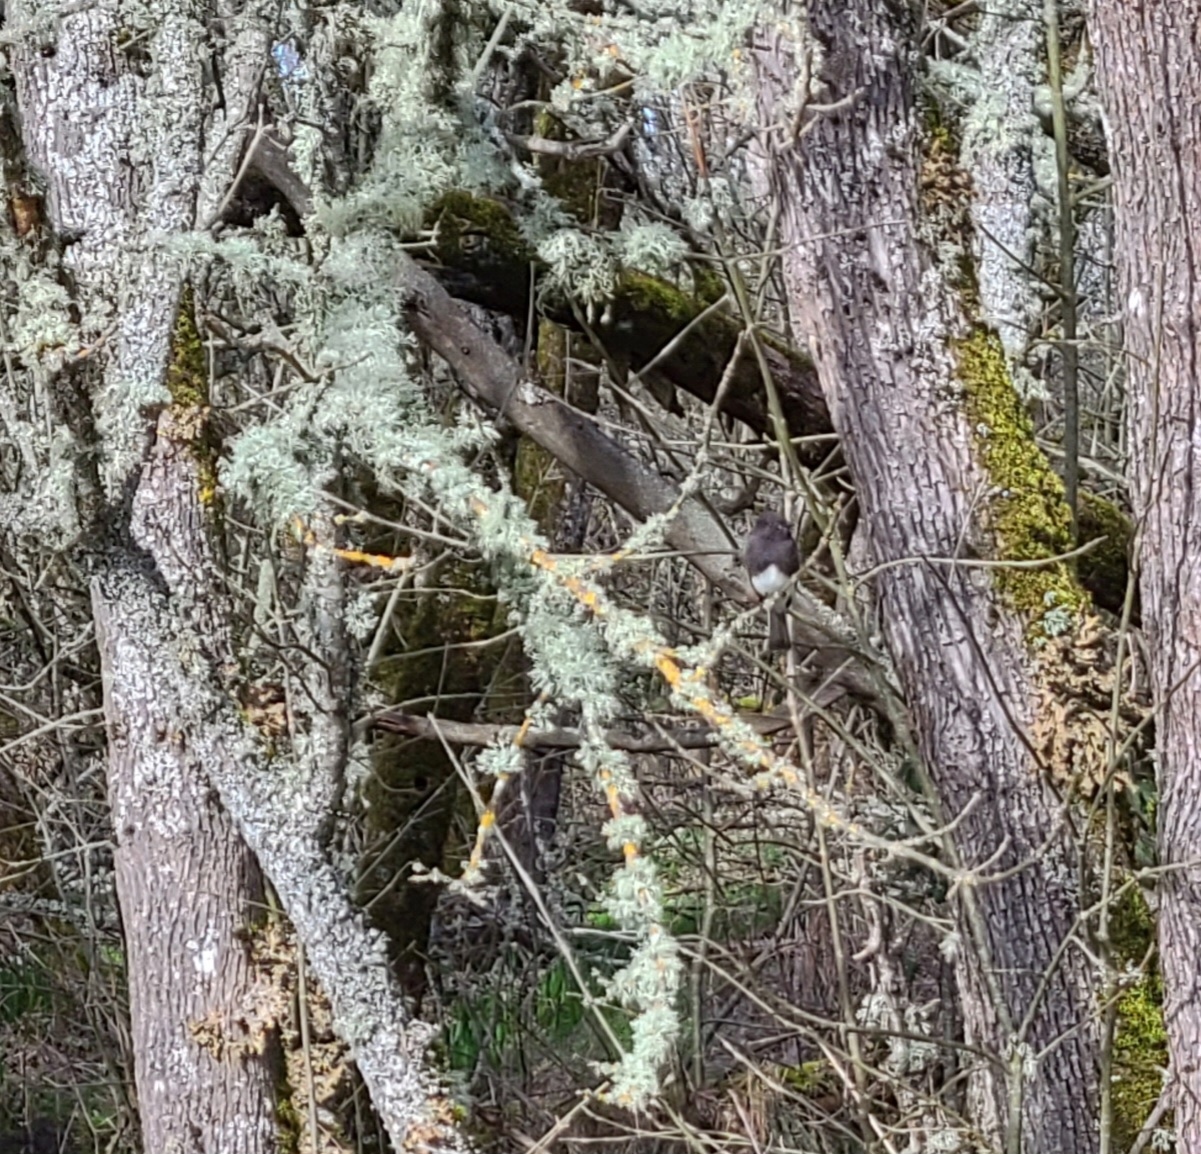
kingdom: Animalia
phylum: Chordata
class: Aves
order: Passeriformes
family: Tyrannidae
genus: Sayornis
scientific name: Sayornis nigricans
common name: Black phoebe
